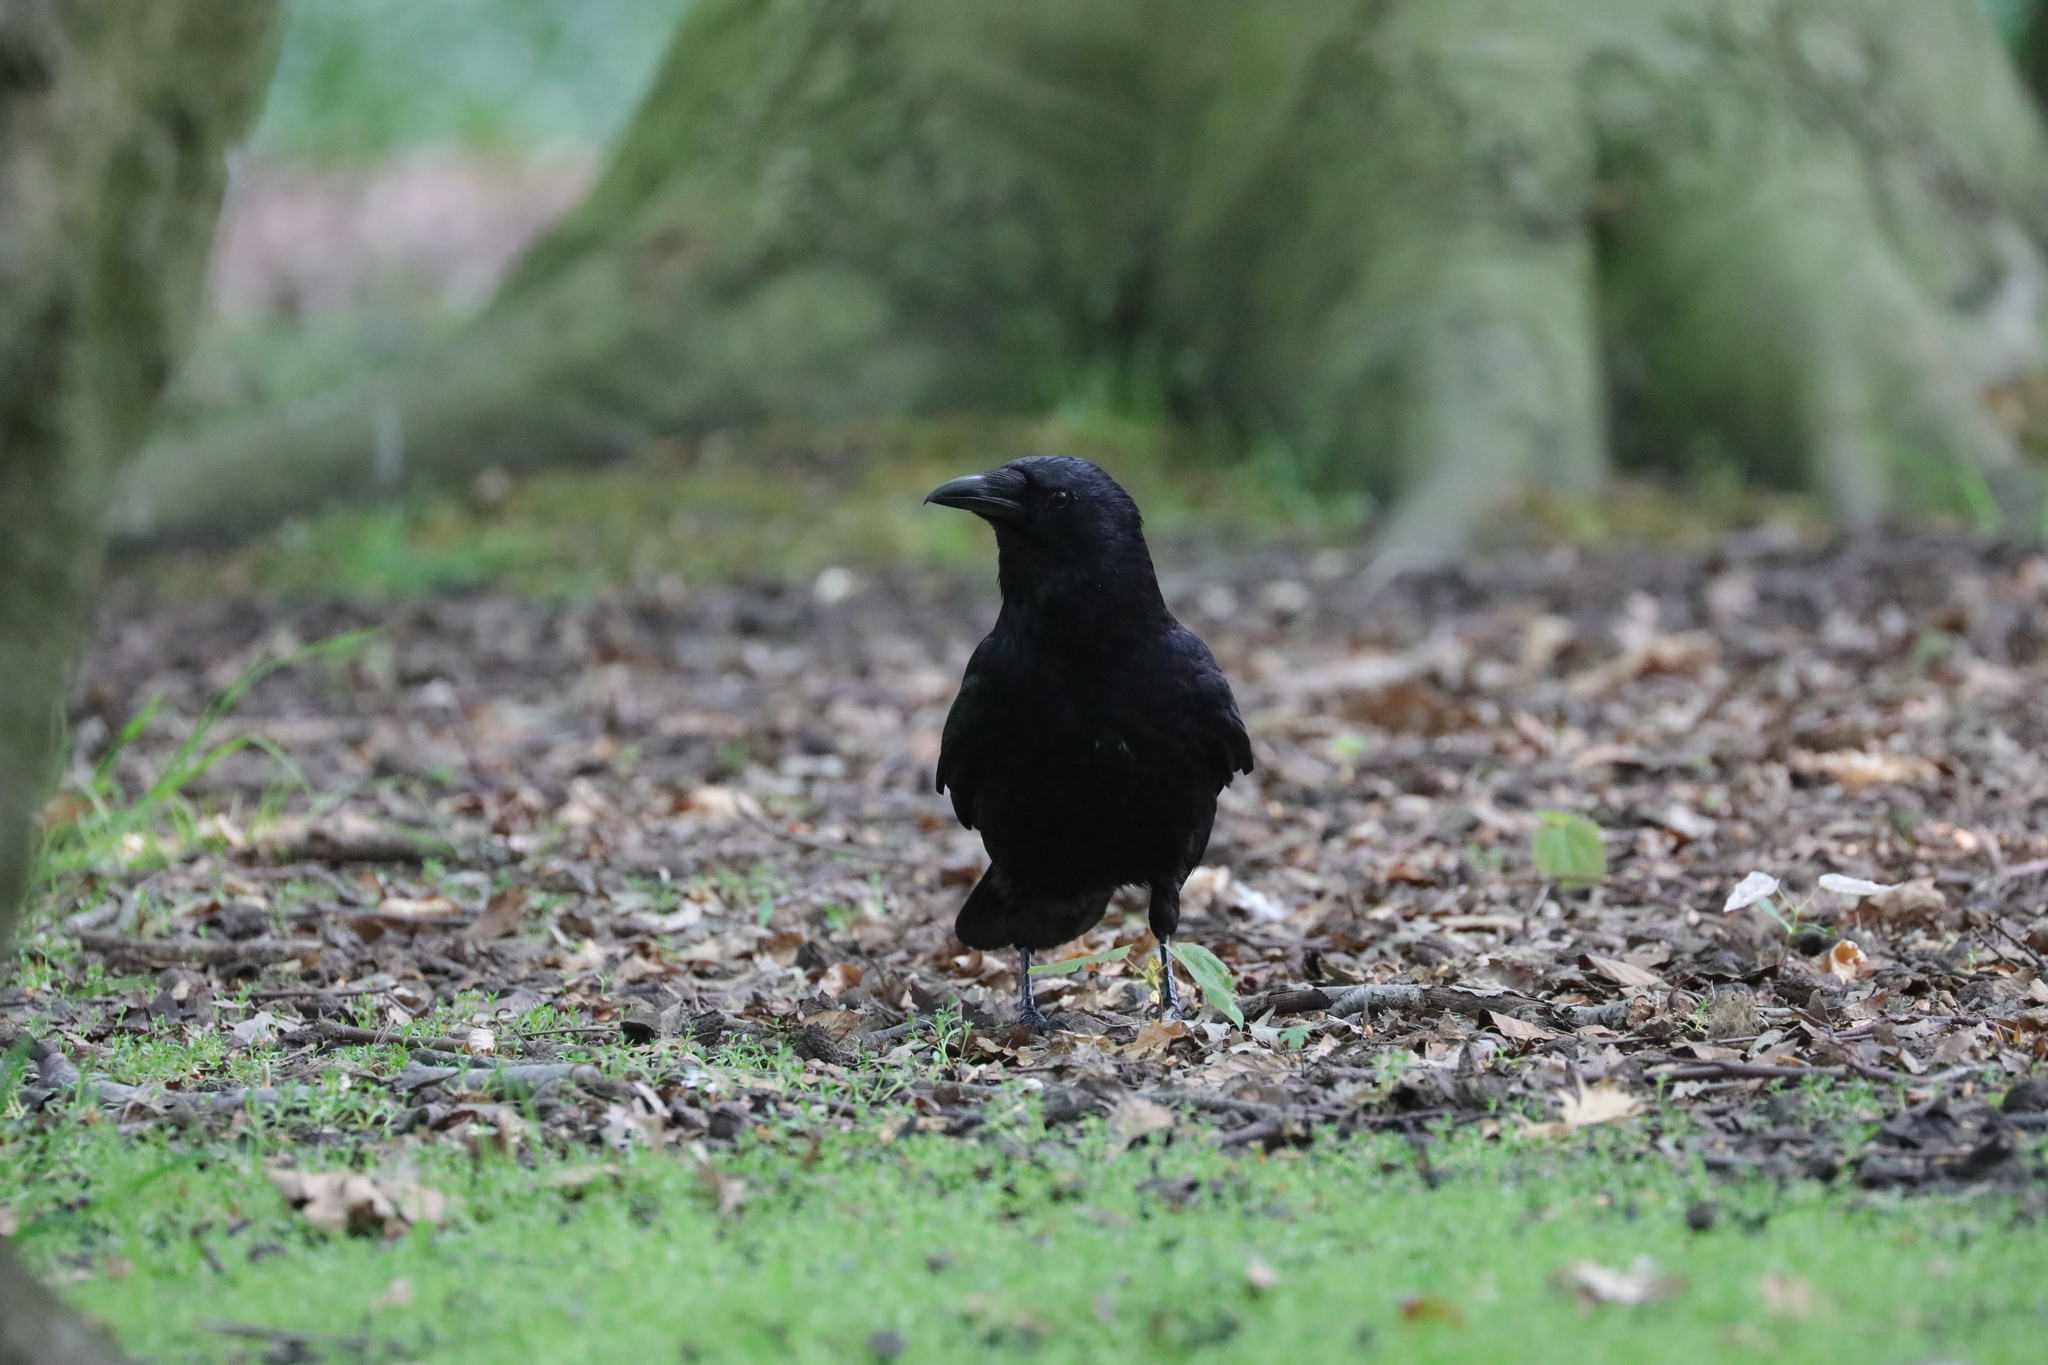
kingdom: Animalia
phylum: Chordata
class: Aves
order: Passeriformes
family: Corvidae
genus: Corvus
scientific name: Corvus corone
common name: Carrion crow
